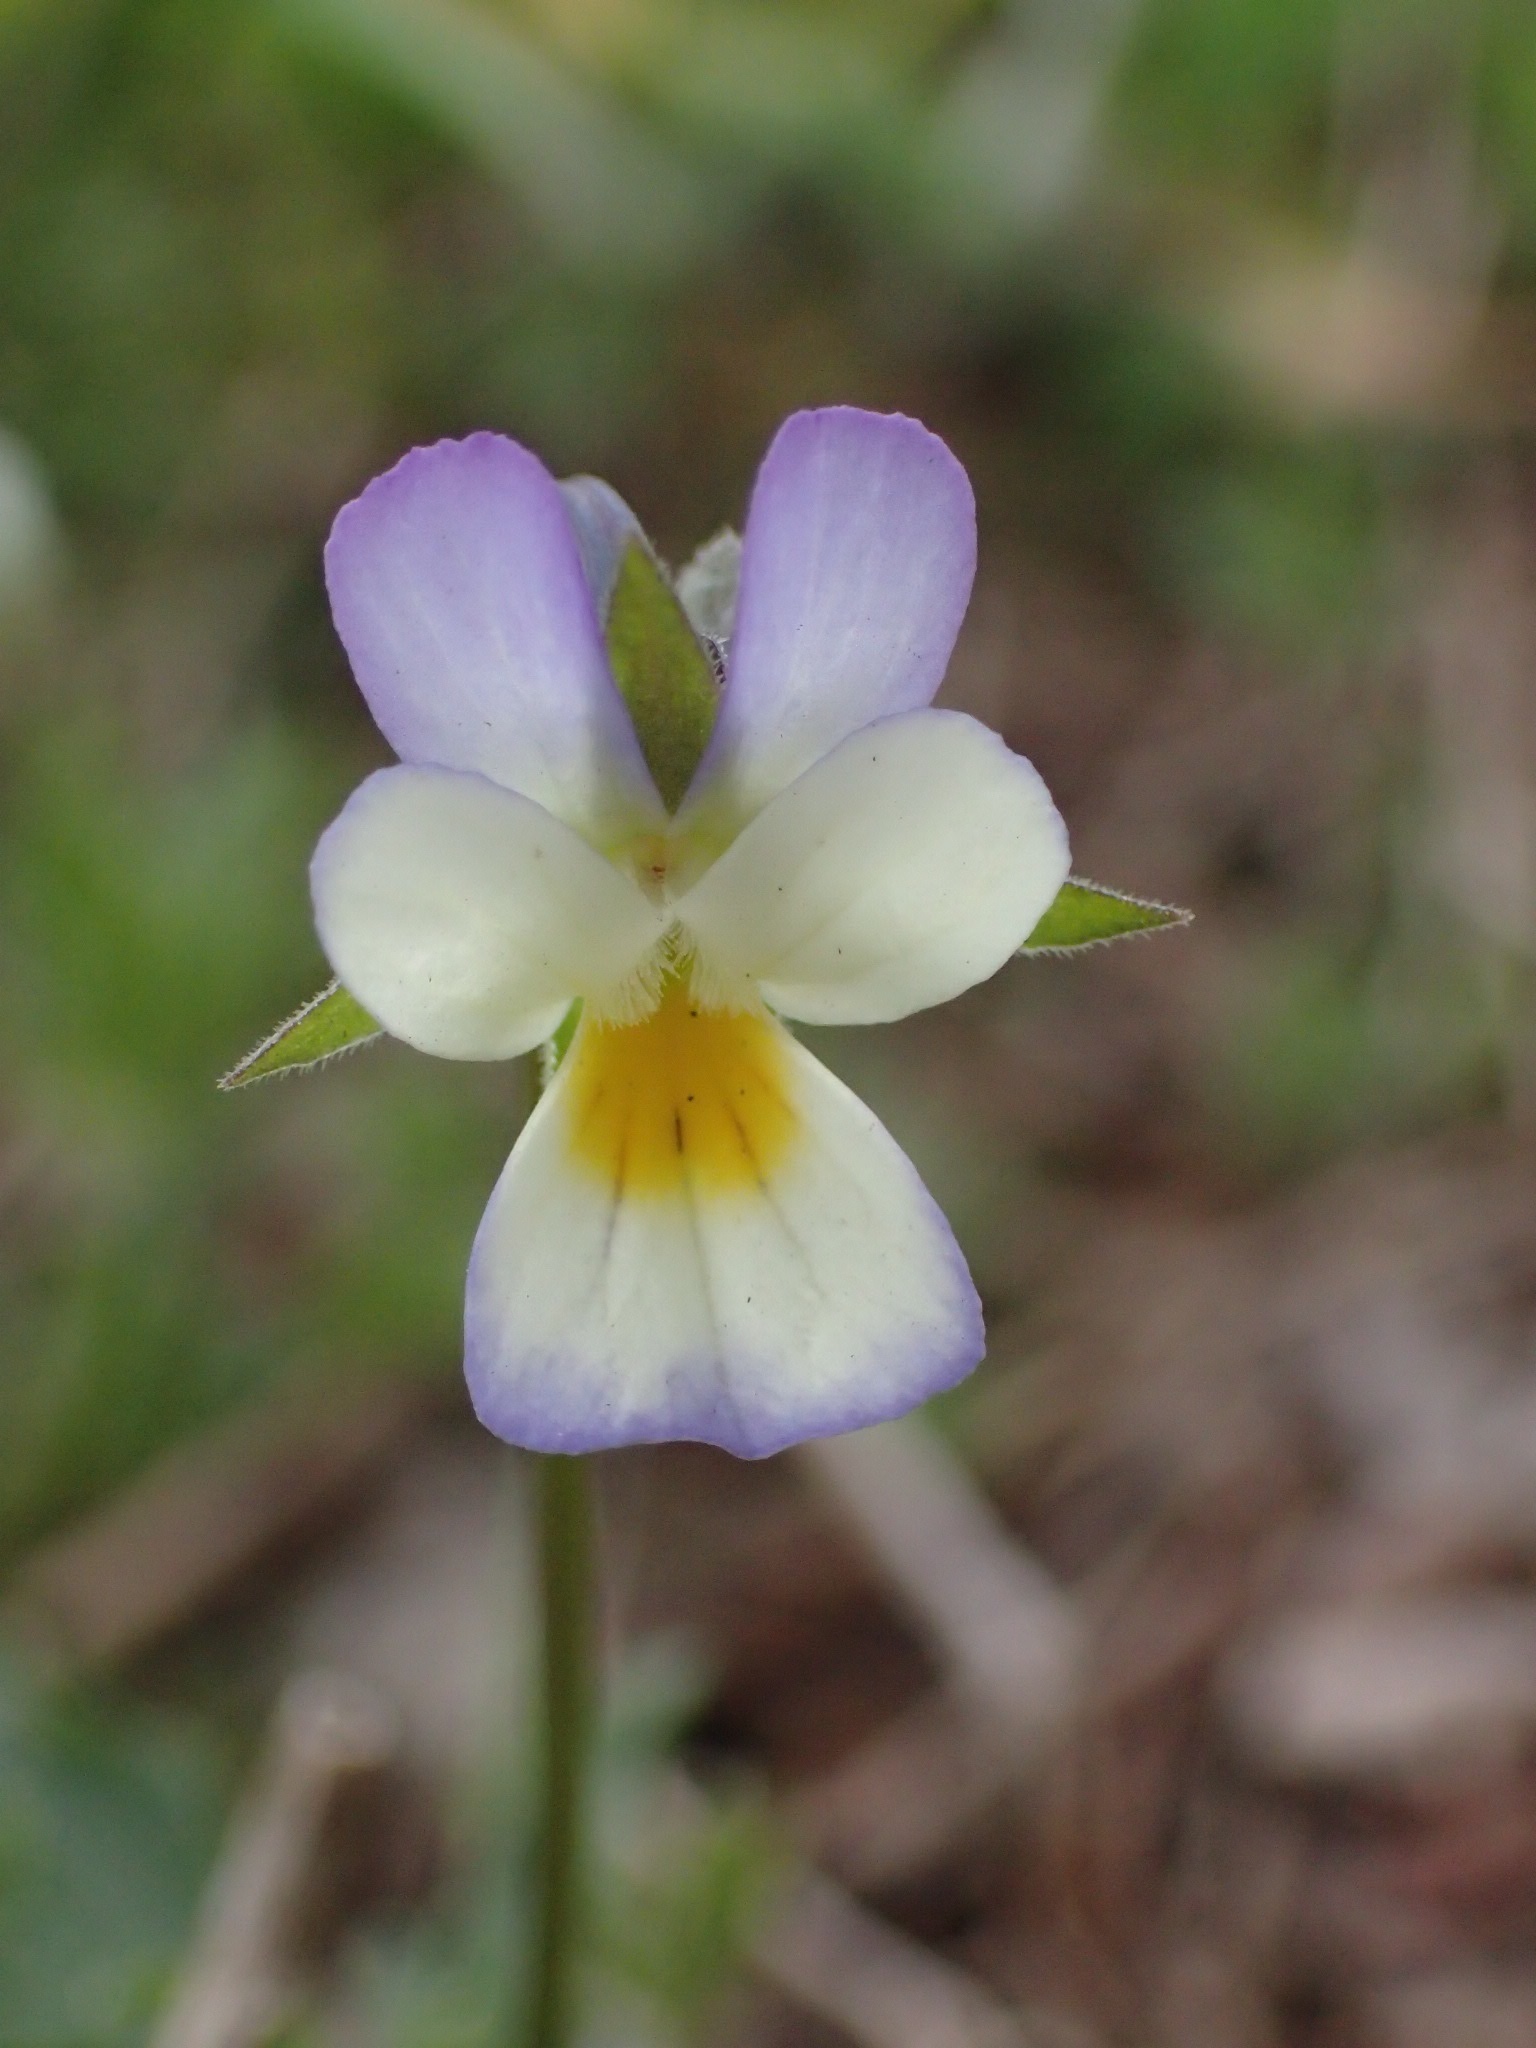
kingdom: Plantae
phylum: Tracheophyta
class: Magnoliopsida
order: Malpighiales
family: Violaceae
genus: Viola
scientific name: Viola arvensis
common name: Field pansy
